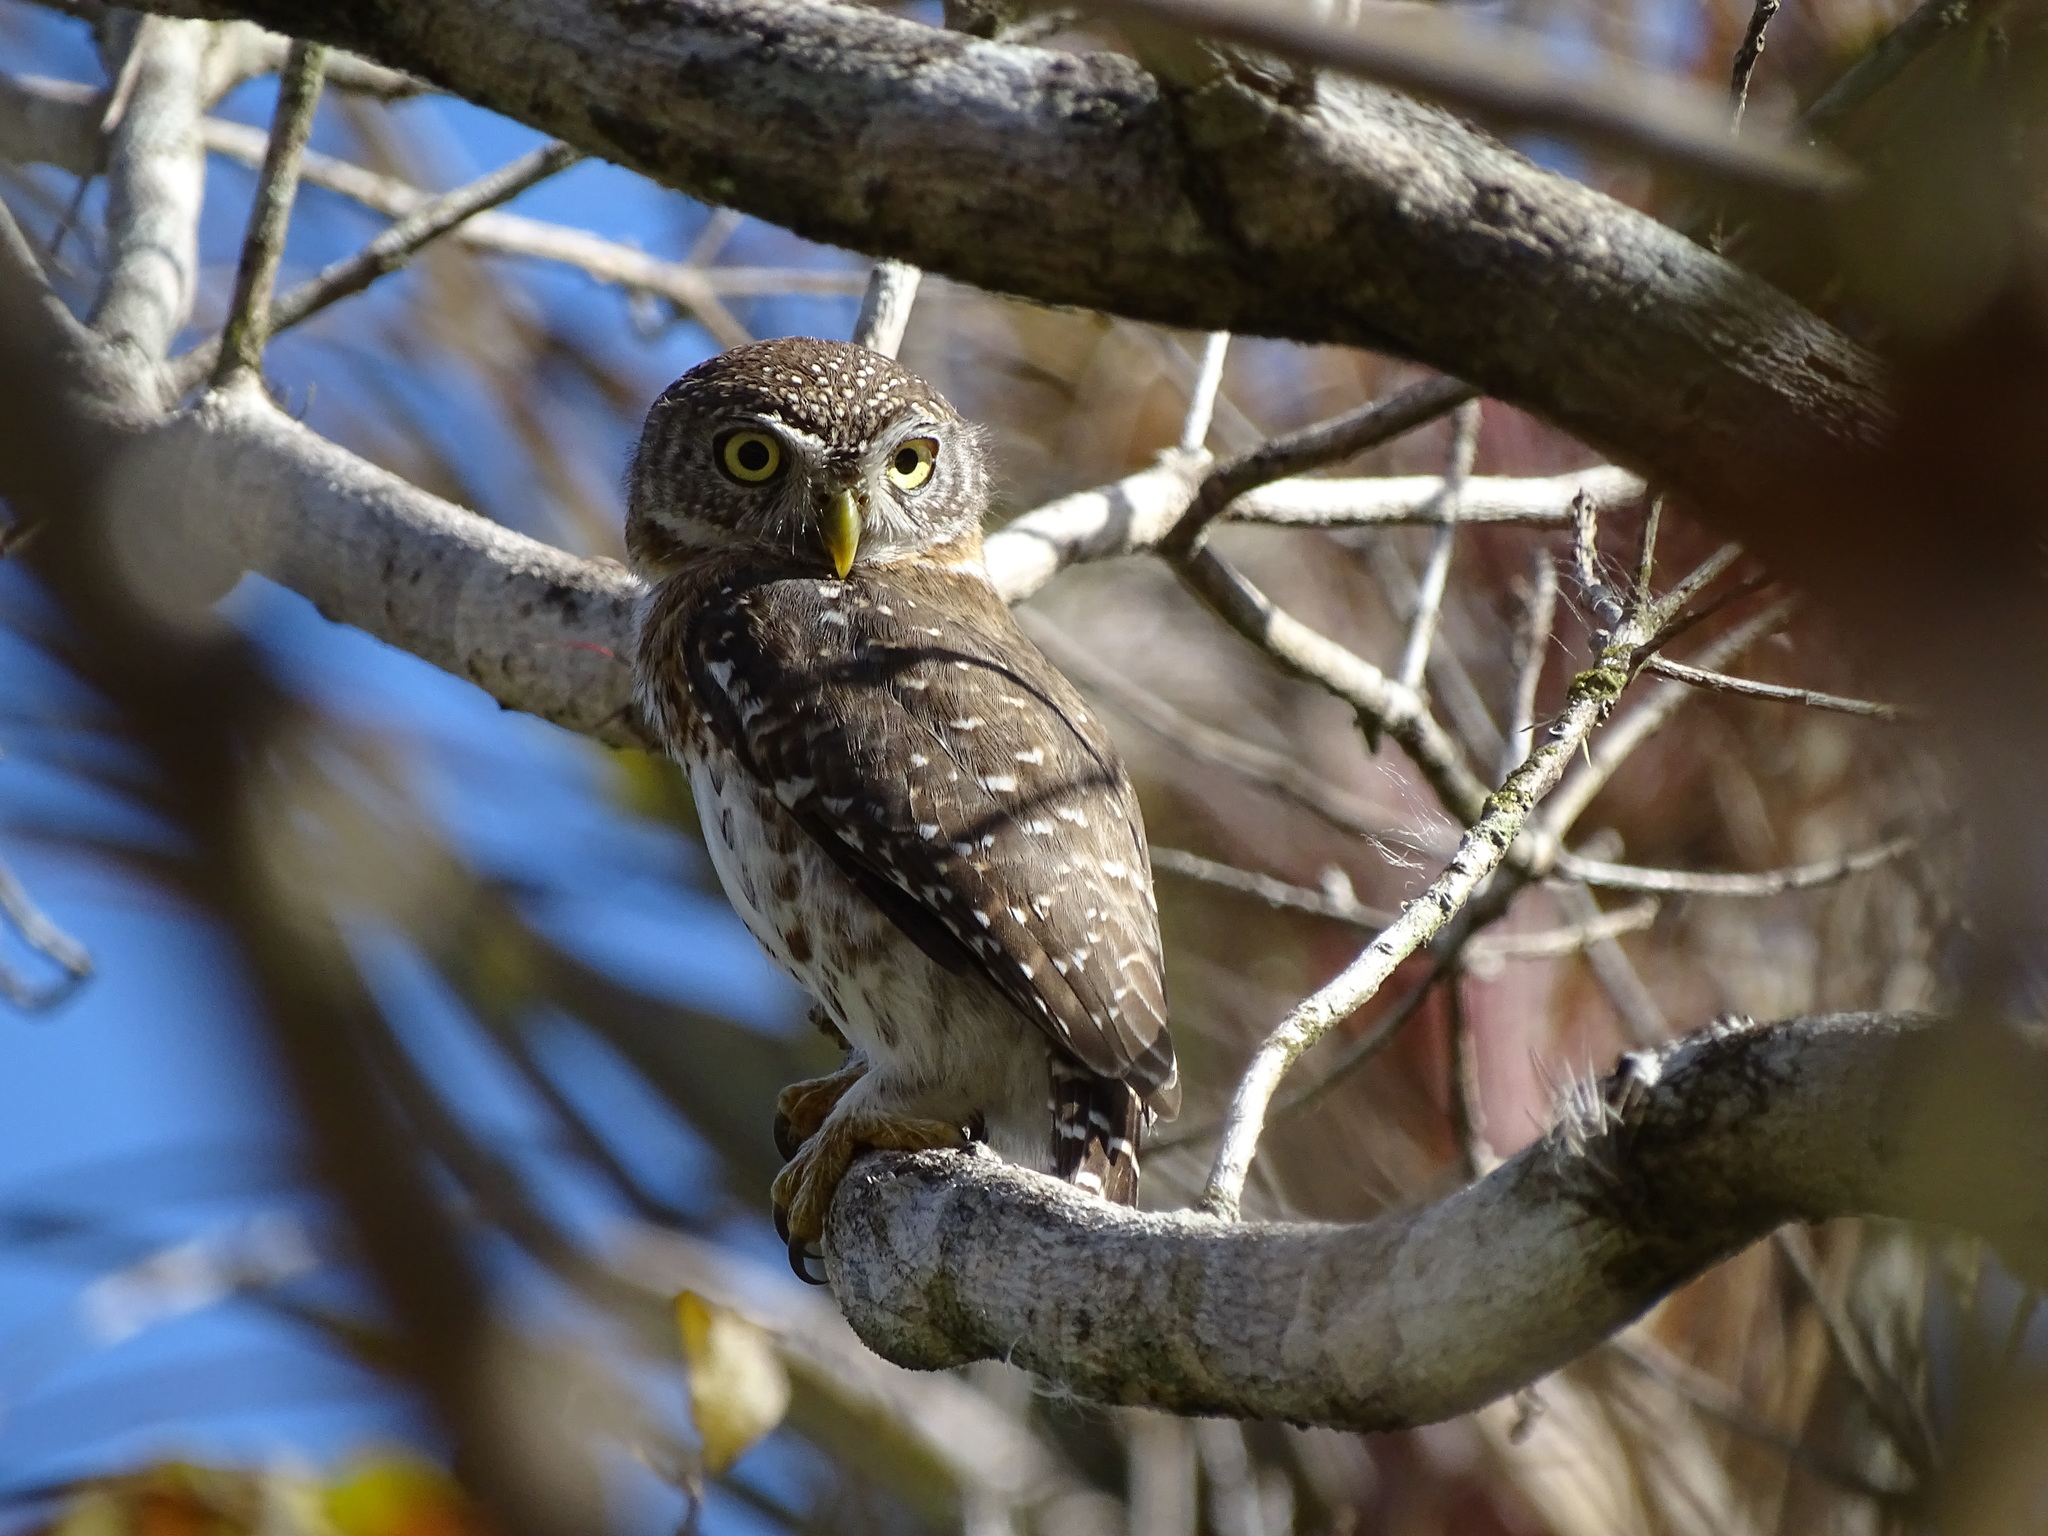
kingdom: Animalia
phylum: Chordata
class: Aves
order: Strigiformes
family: Strigidae
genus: Glaucidium
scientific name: Glaucidium siju
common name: Cuban pygmy-owl
